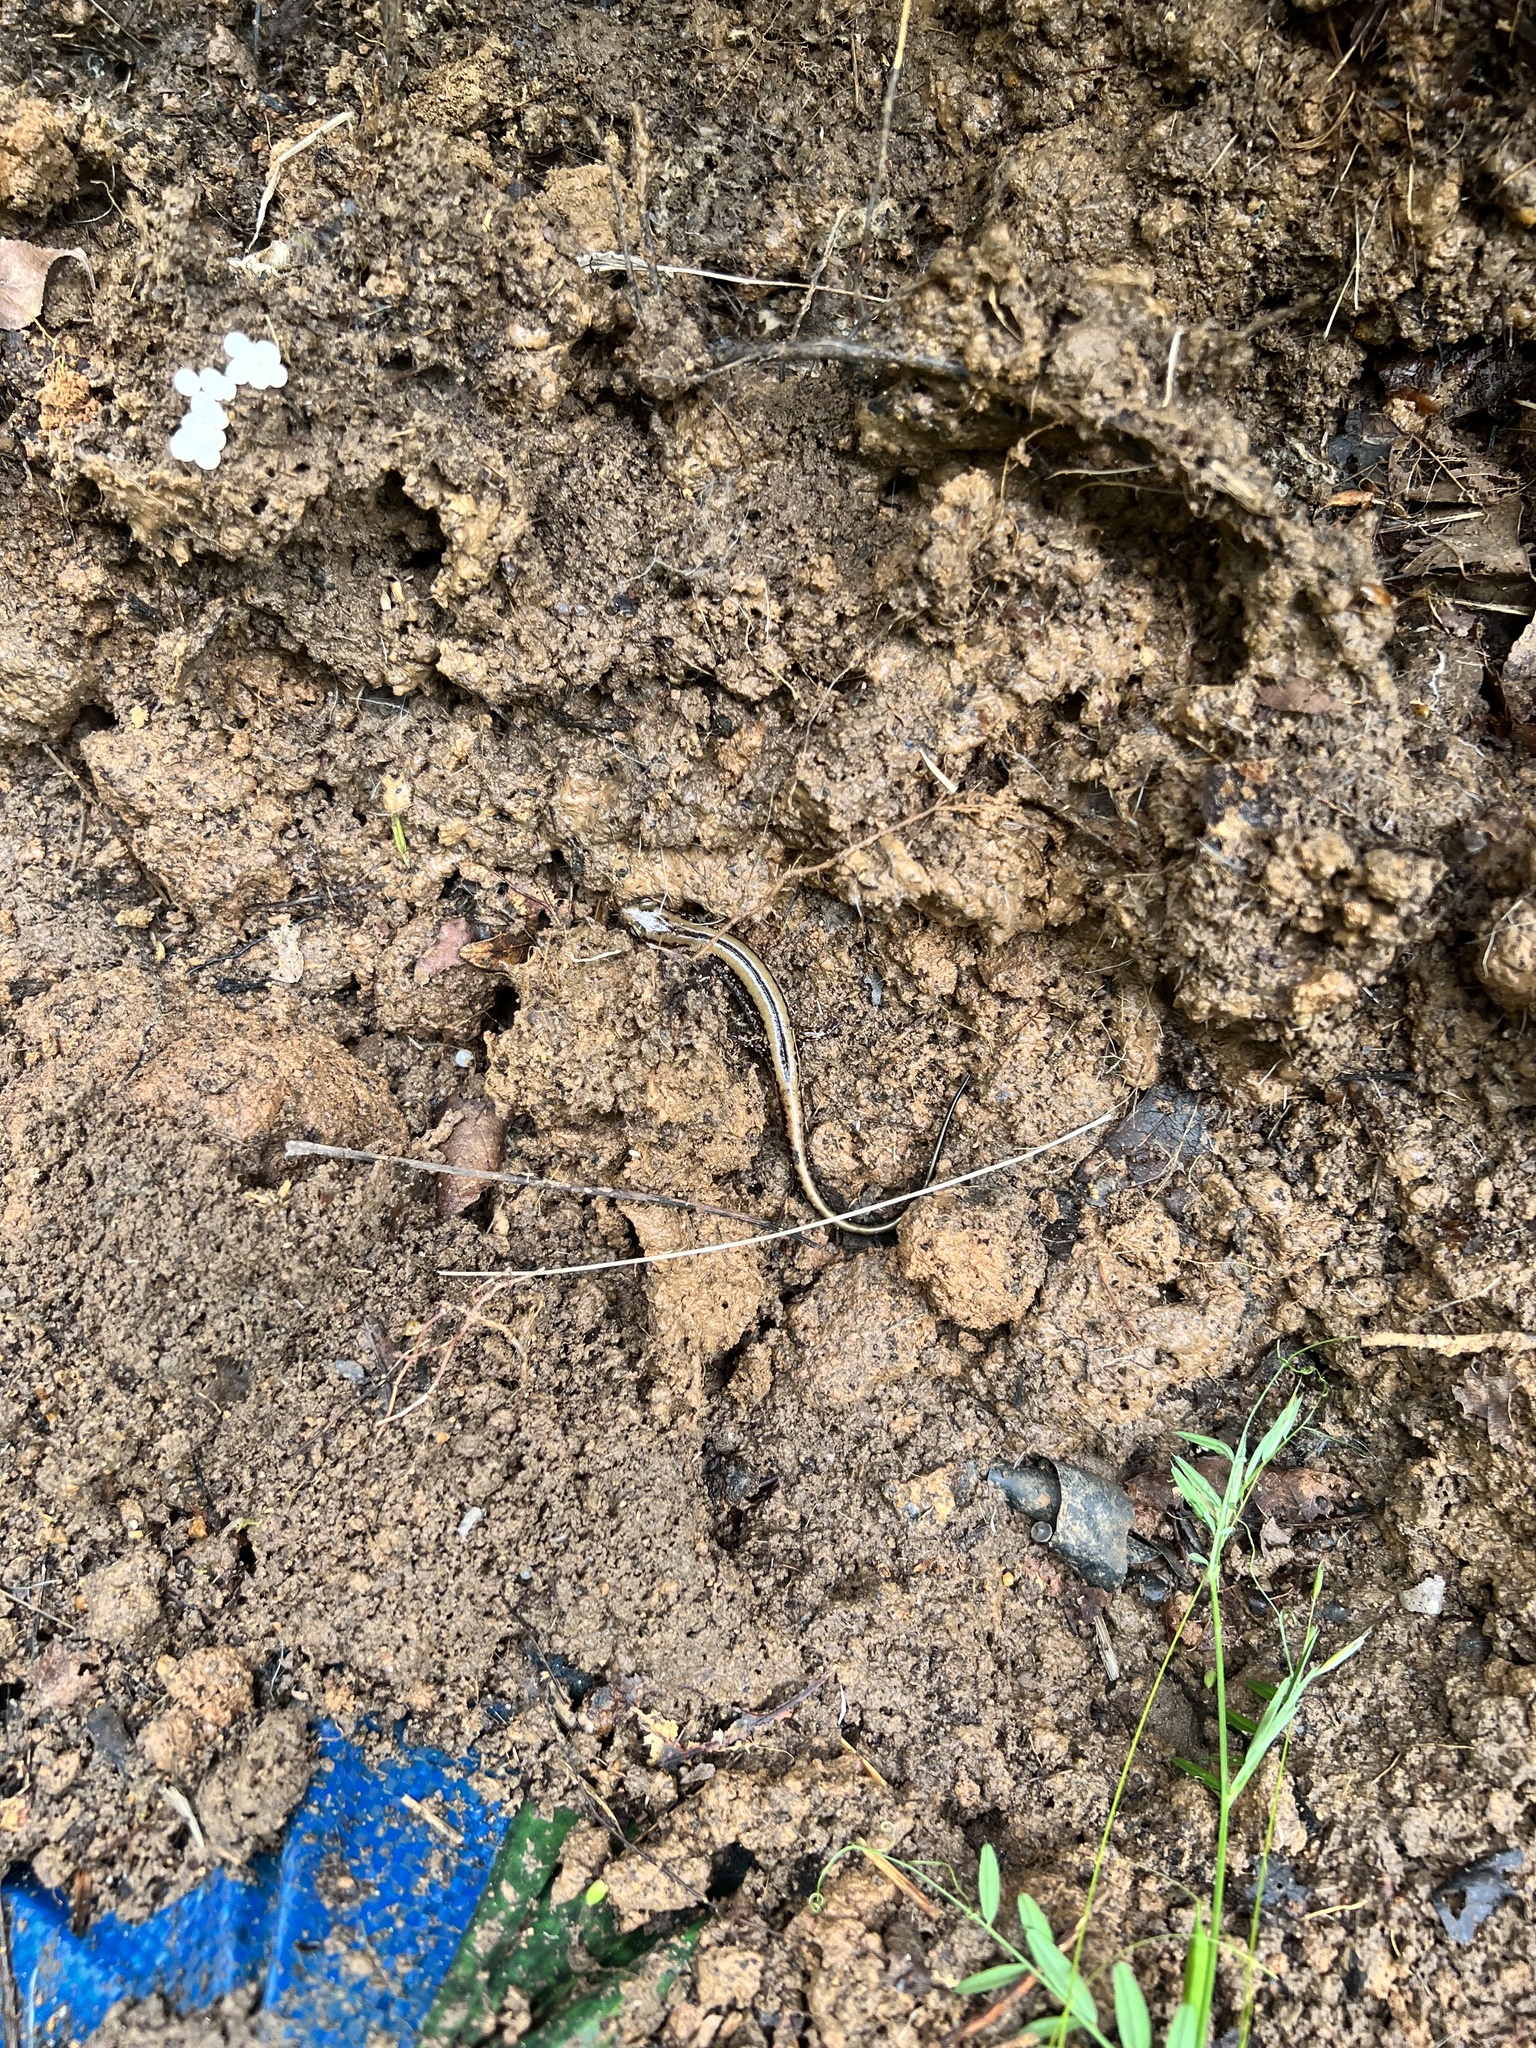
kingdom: Animalia
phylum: Chordata
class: Amphibia
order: Caudata
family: Plethodontidae
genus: Eurycea
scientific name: Eurycea guttolineata
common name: Three-lined salamander
